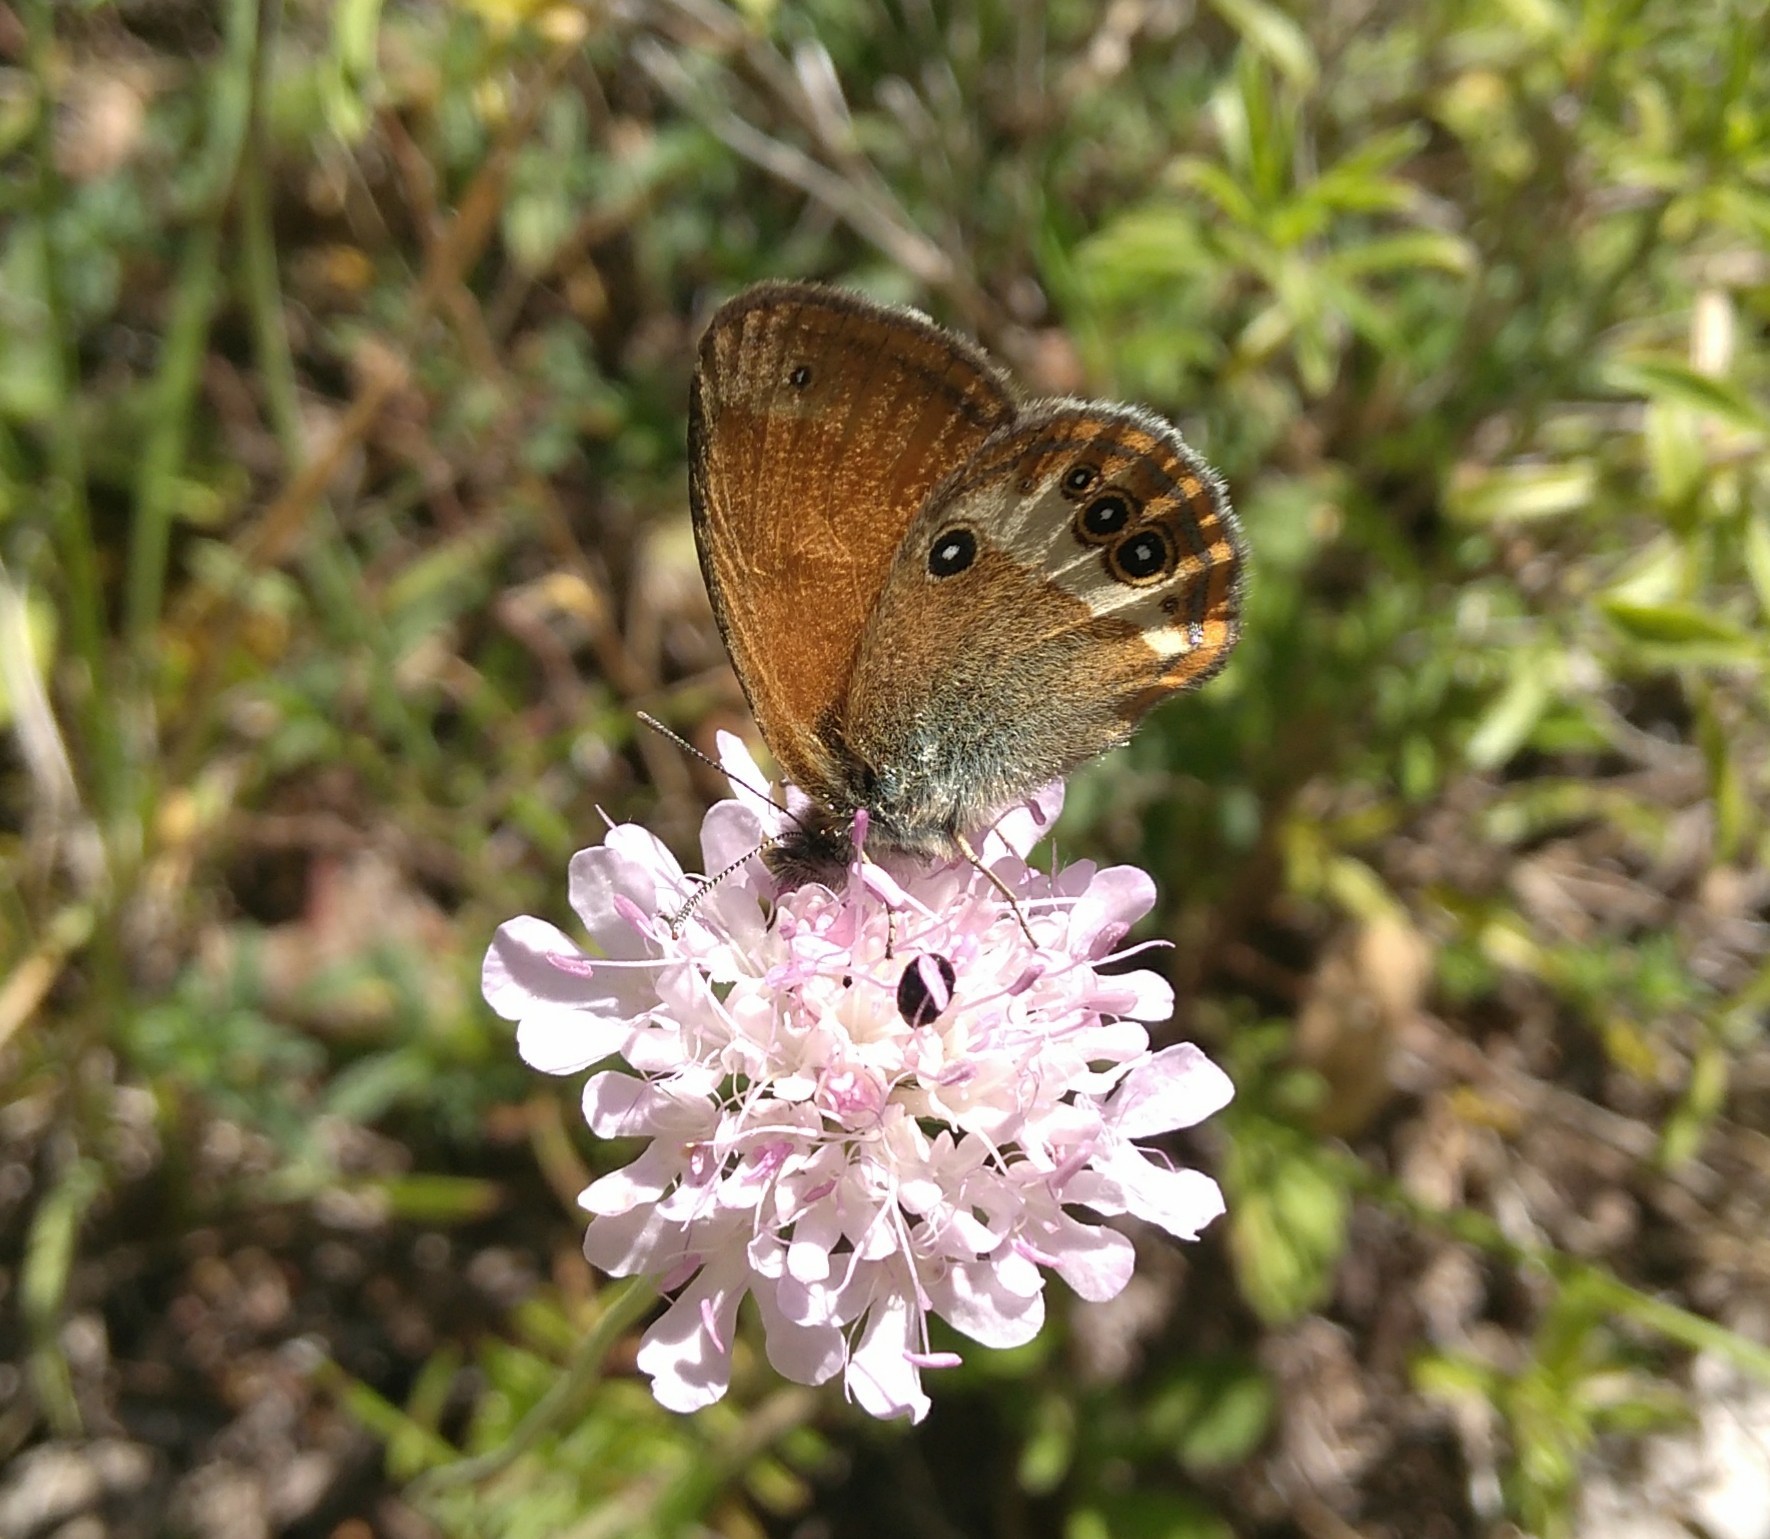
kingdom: Animalia
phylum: Arthropoda
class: Insecta
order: Lepidoptera
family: Nymphalidae
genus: Coenonympha
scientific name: Coenonympha arcania
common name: Pearly heath
